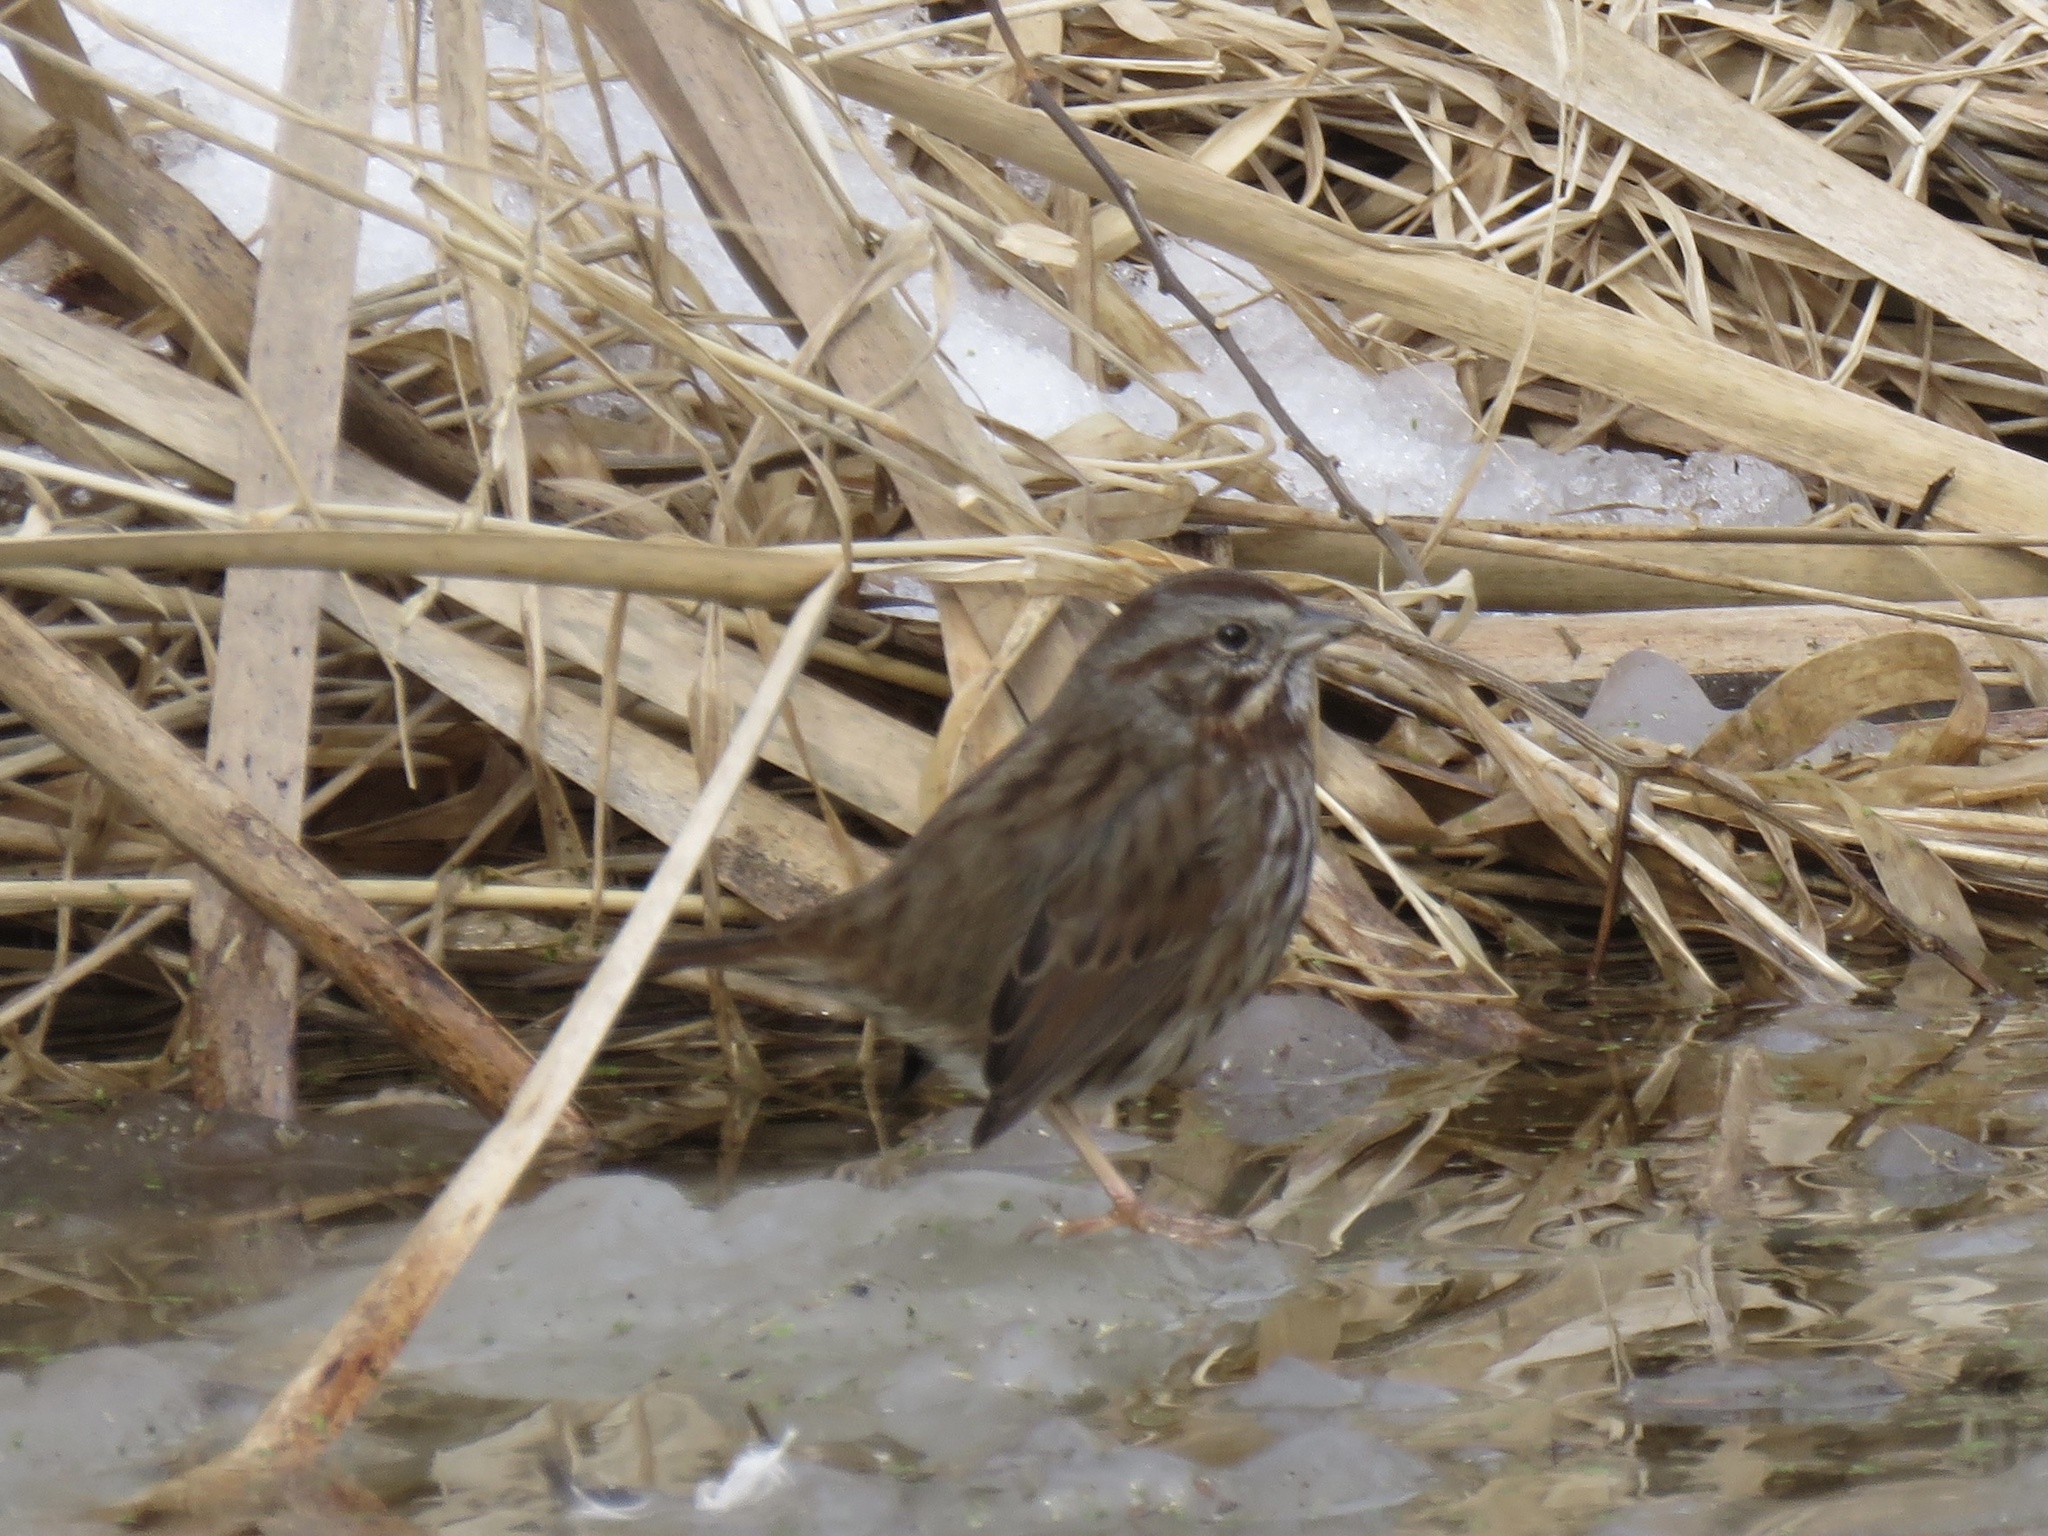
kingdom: Animalia
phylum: Chordata
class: Aves
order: Passeriformes
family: Passerellidae
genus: Melospiza
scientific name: Melospiza melodia
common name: Song sparrow
